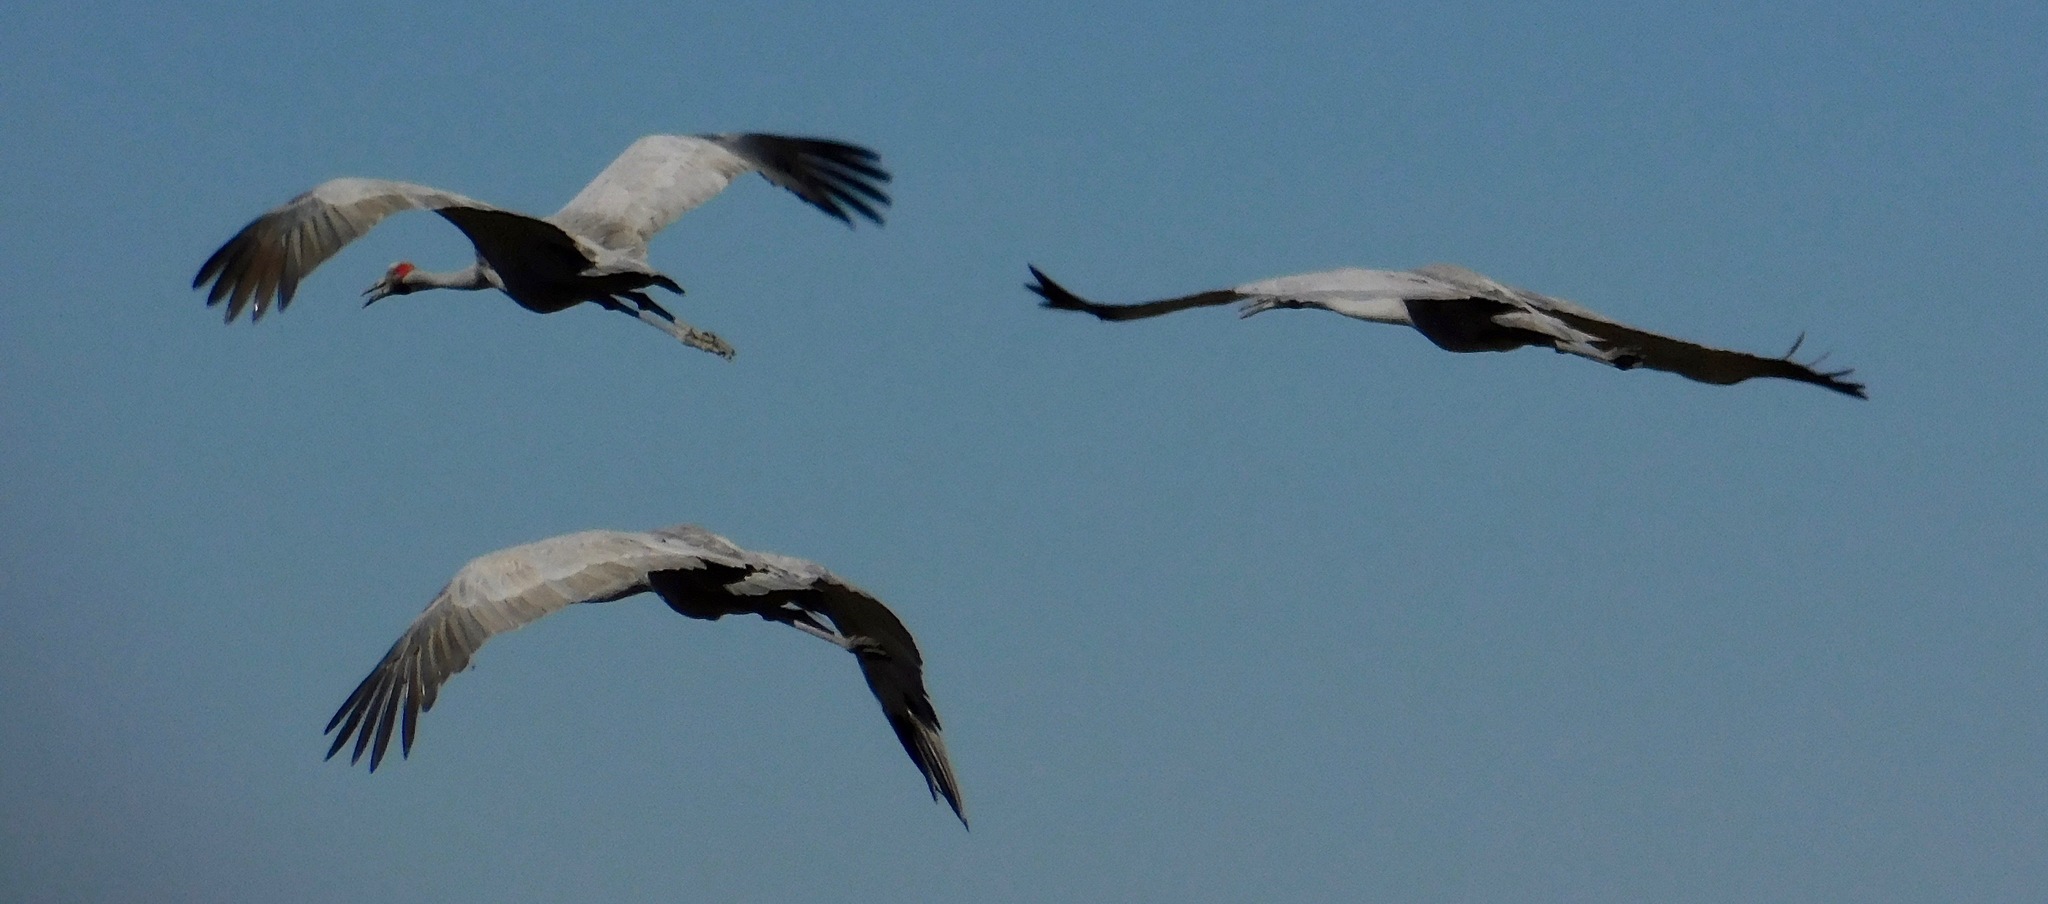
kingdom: Animalia
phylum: Chordata
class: Aves
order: Gruiformes
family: Gruidae
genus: Grus
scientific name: Grus rubicunda
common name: Brolga
